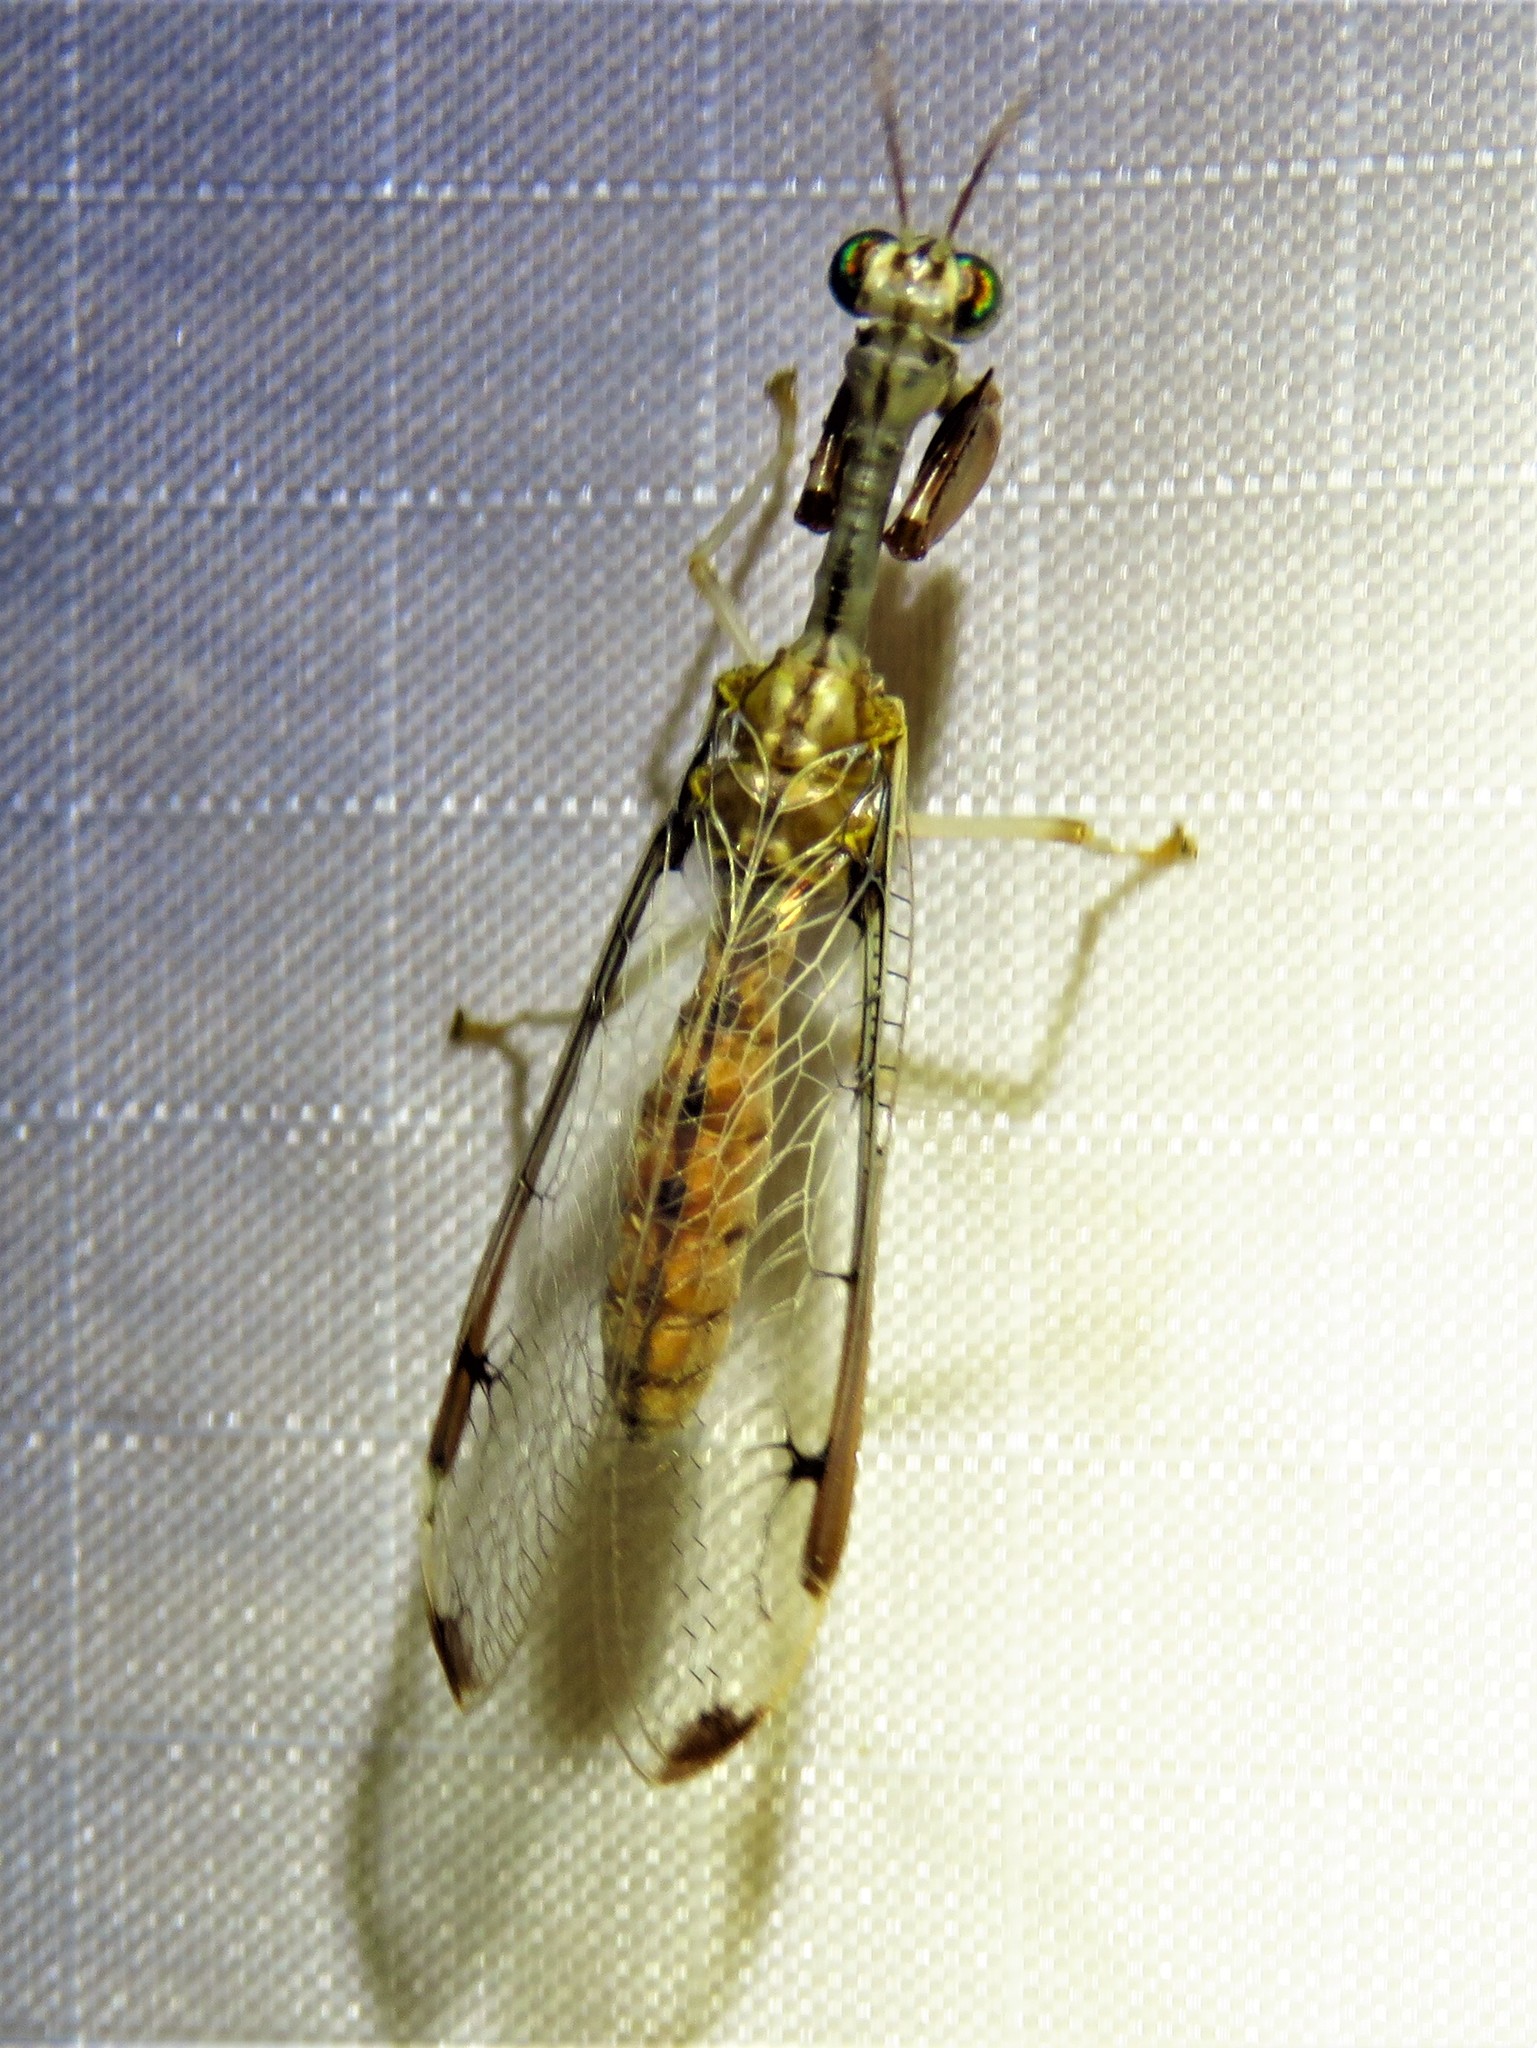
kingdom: Animalia
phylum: Arthropoda
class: Insecta
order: Neuroptera
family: Mantispidae
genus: Dicromantispa
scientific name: Dicromantispa interrupta
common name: Four-spotted mantidfly
